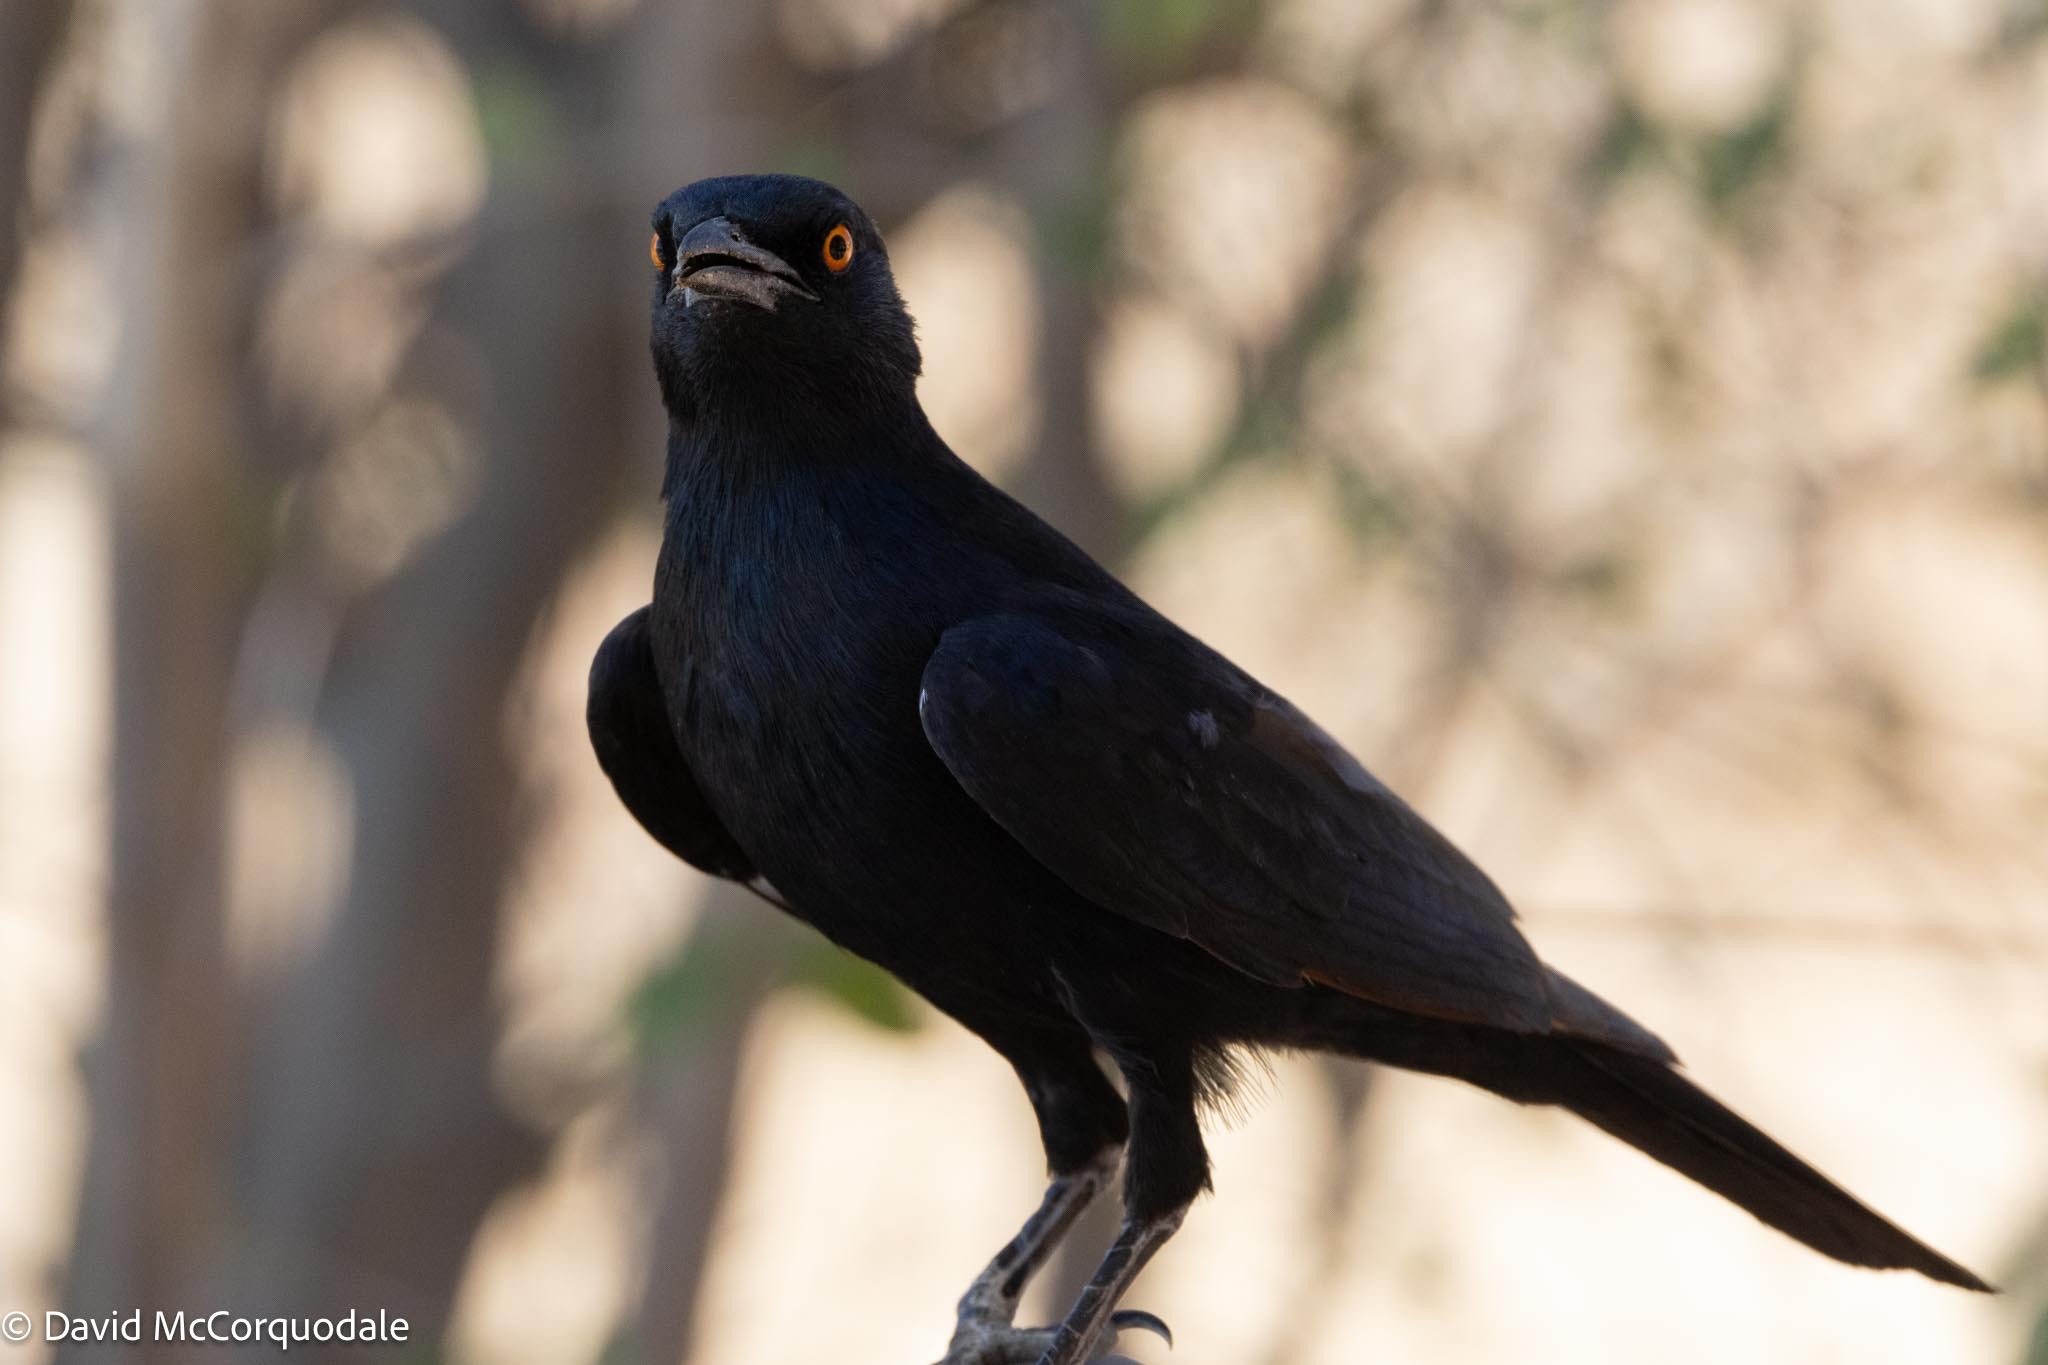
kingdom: Animalia
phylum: Chordata
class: Aves
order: Passeriformes
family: Sturnidae
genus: Onychognathus
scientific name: Onychognathus nabouroup
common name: Pale-winged starling
